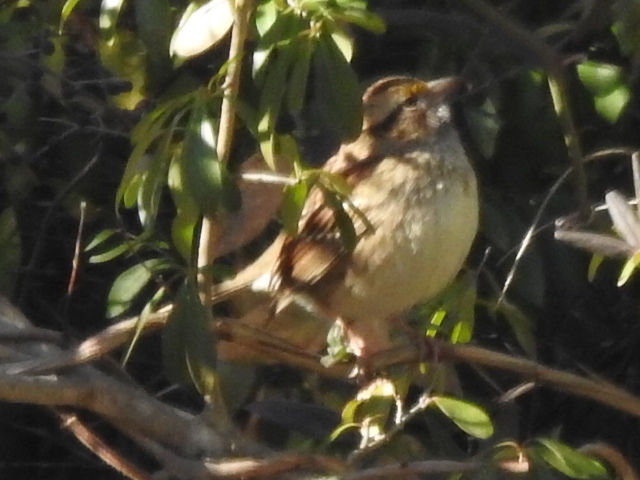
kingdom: Animalia
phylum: Chordata
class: Aves
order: Passeriformes
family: Passerellidae
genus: Zonotrichia
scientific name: Zonotrichia albicollis
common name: White-throated sparrow
